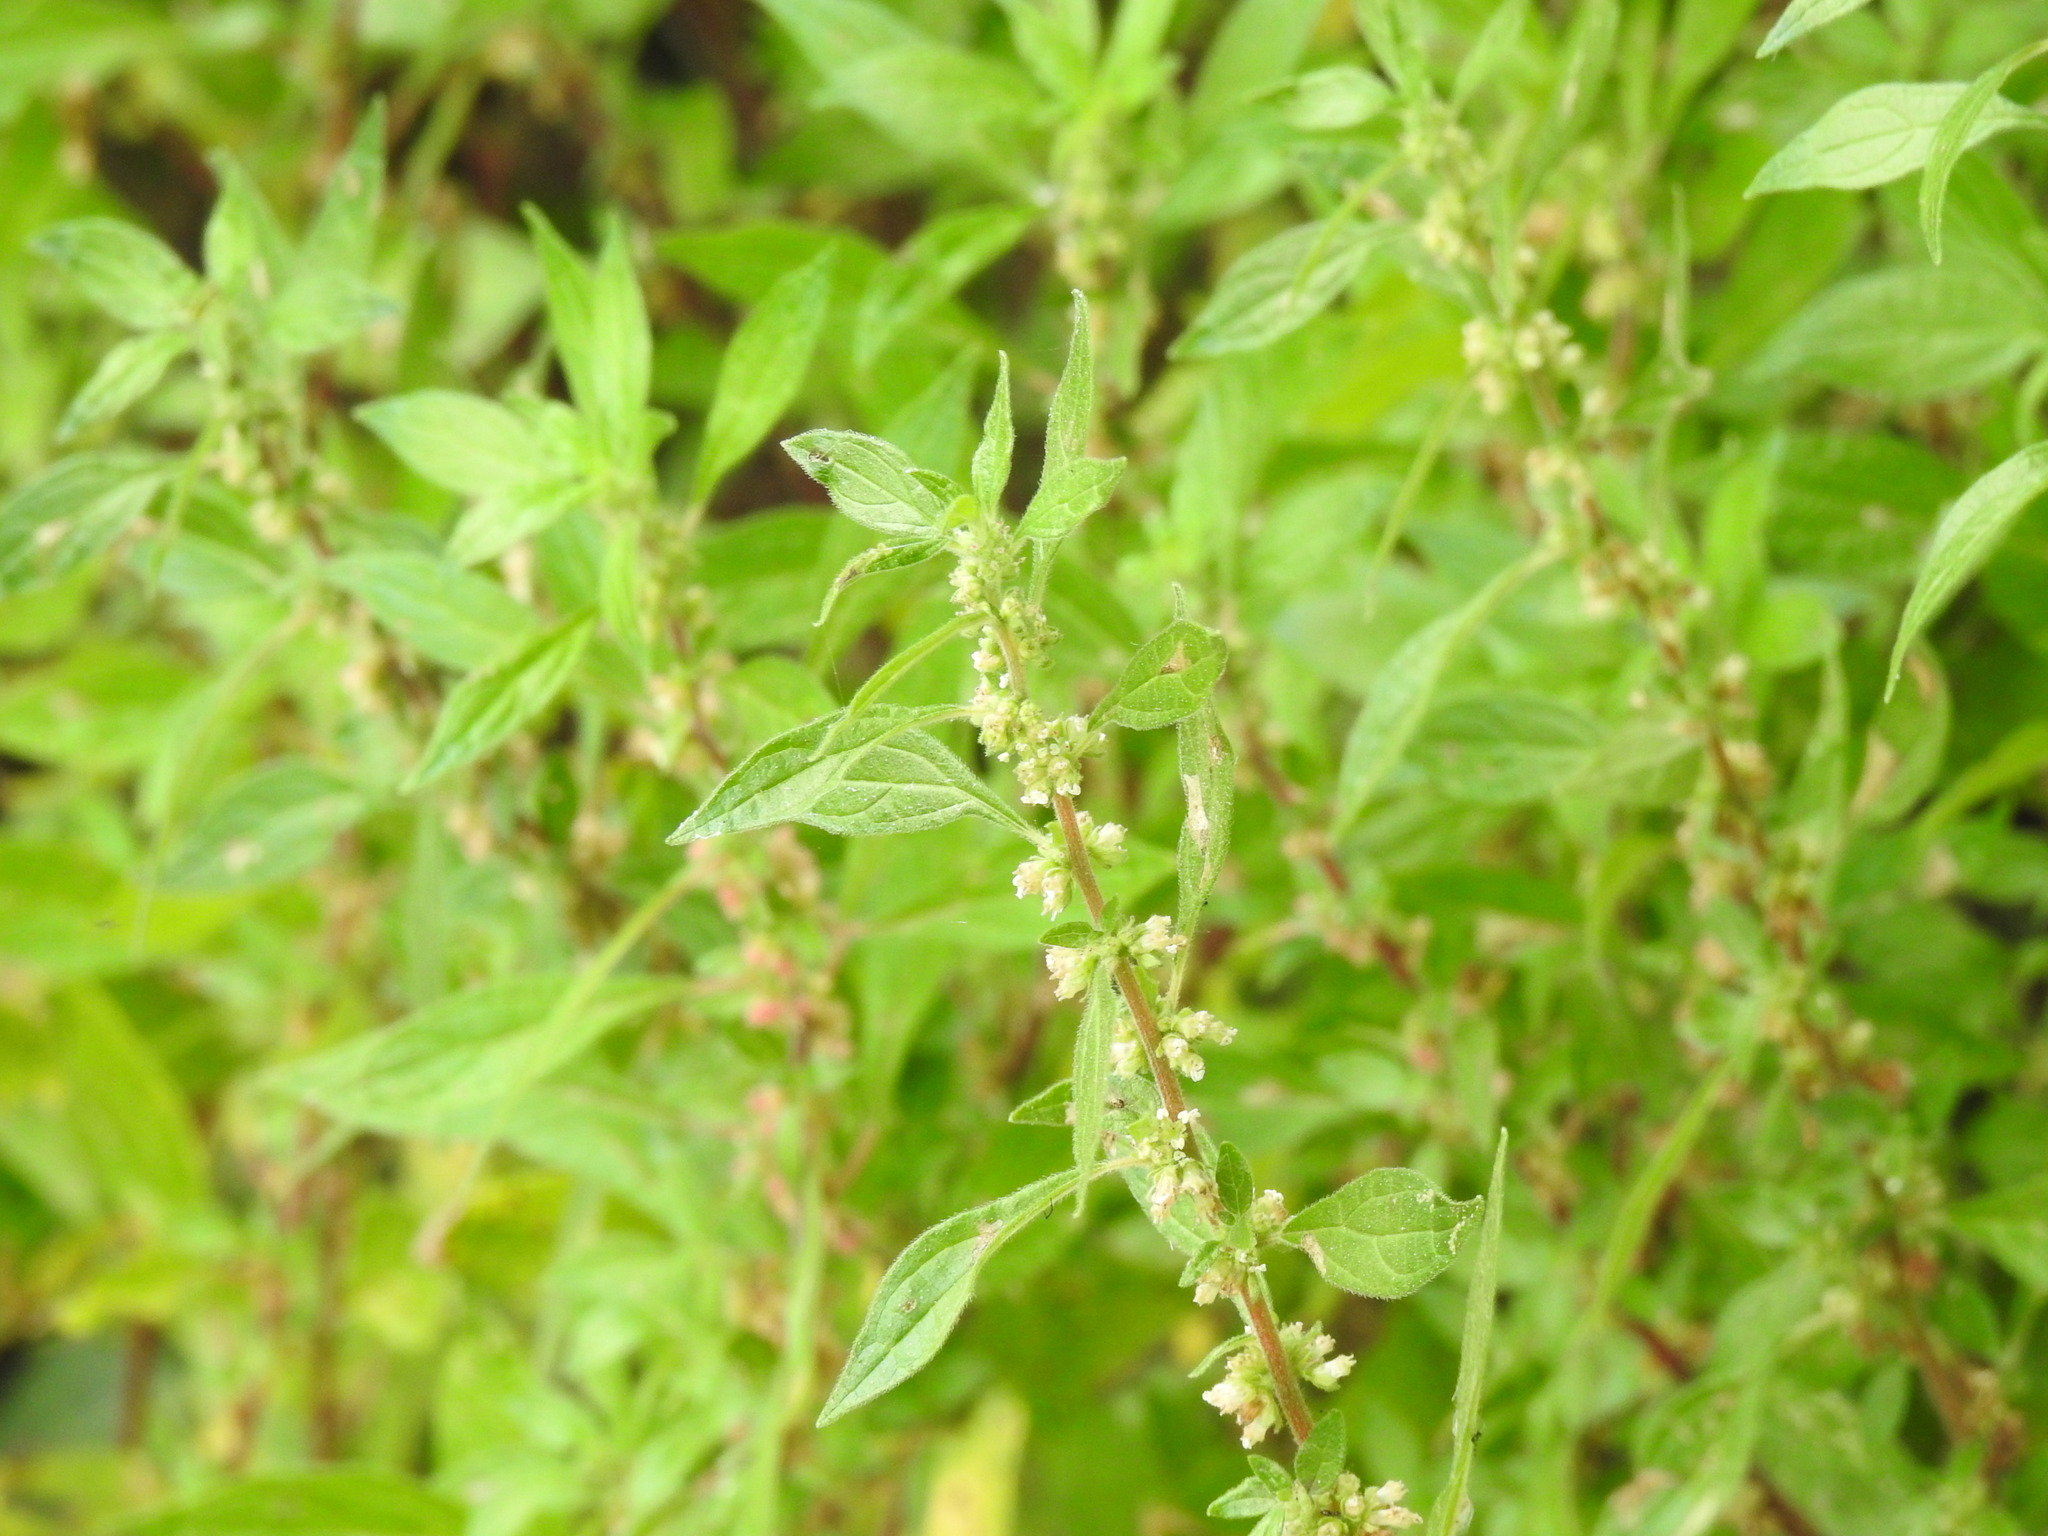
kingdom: Plantae
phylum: Tracheophyta
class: Magnoliopsida
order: Rosales
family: Urticaceae
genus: Parietaria
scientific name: Parietaria judaica
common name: Pellitory-of-the-wall
